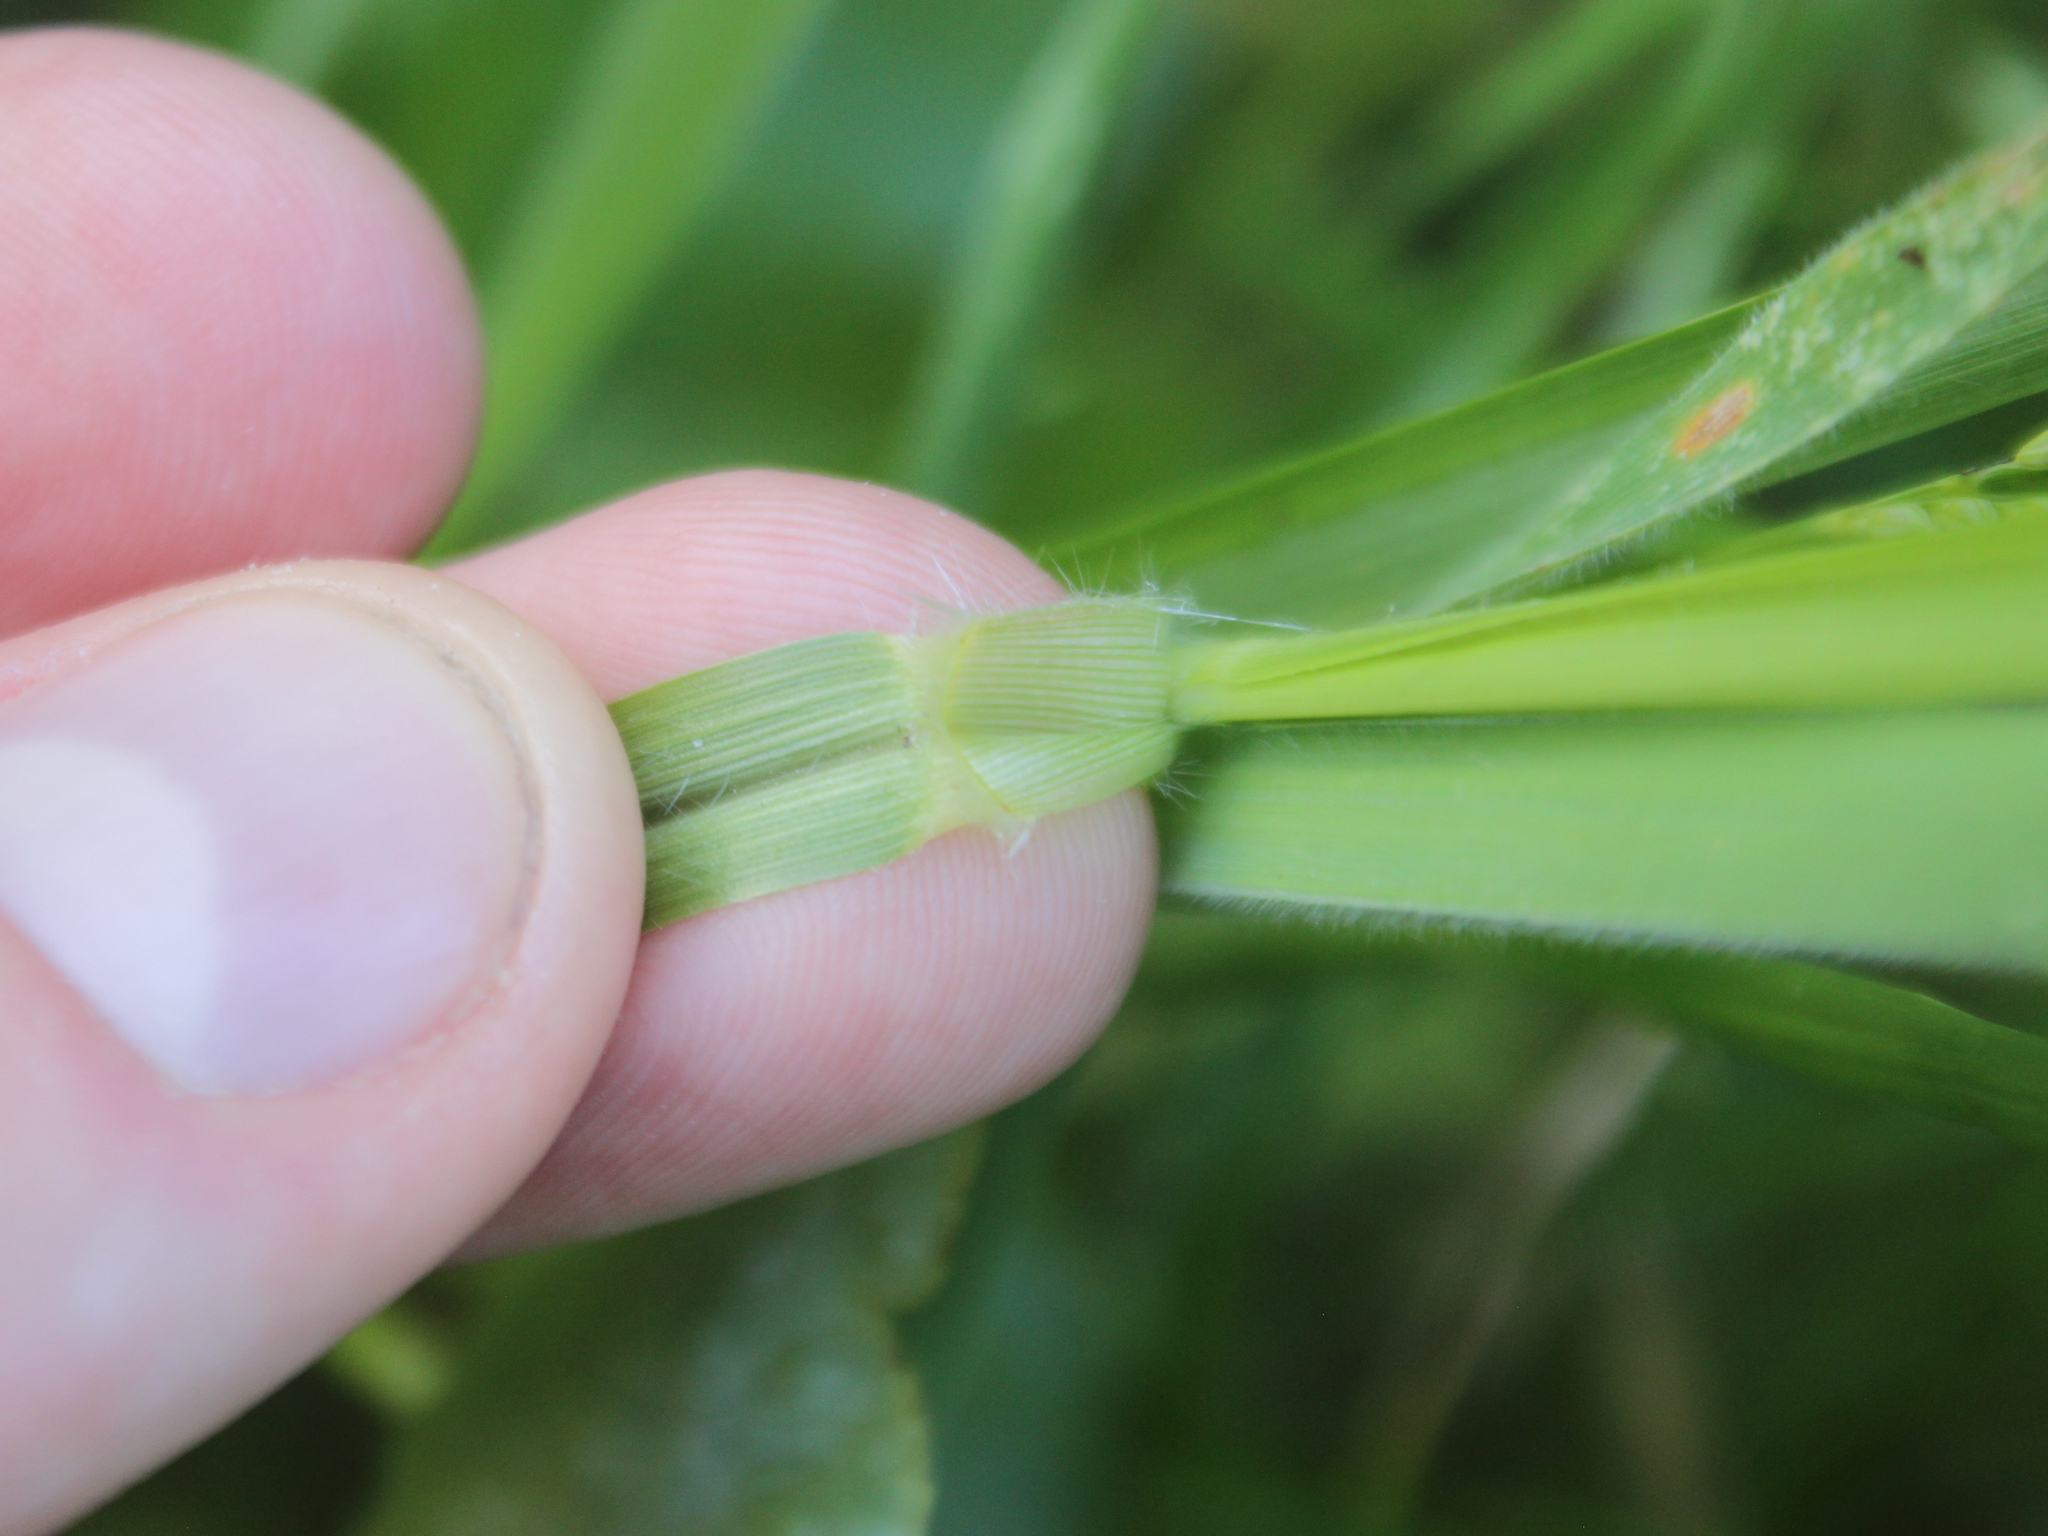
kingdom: Plantae
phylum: Tracheophyta
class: Liliopsida
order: Poales
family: Poaceae
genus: Paspalum
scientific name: Paspalum distichum
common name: Knotgrass
